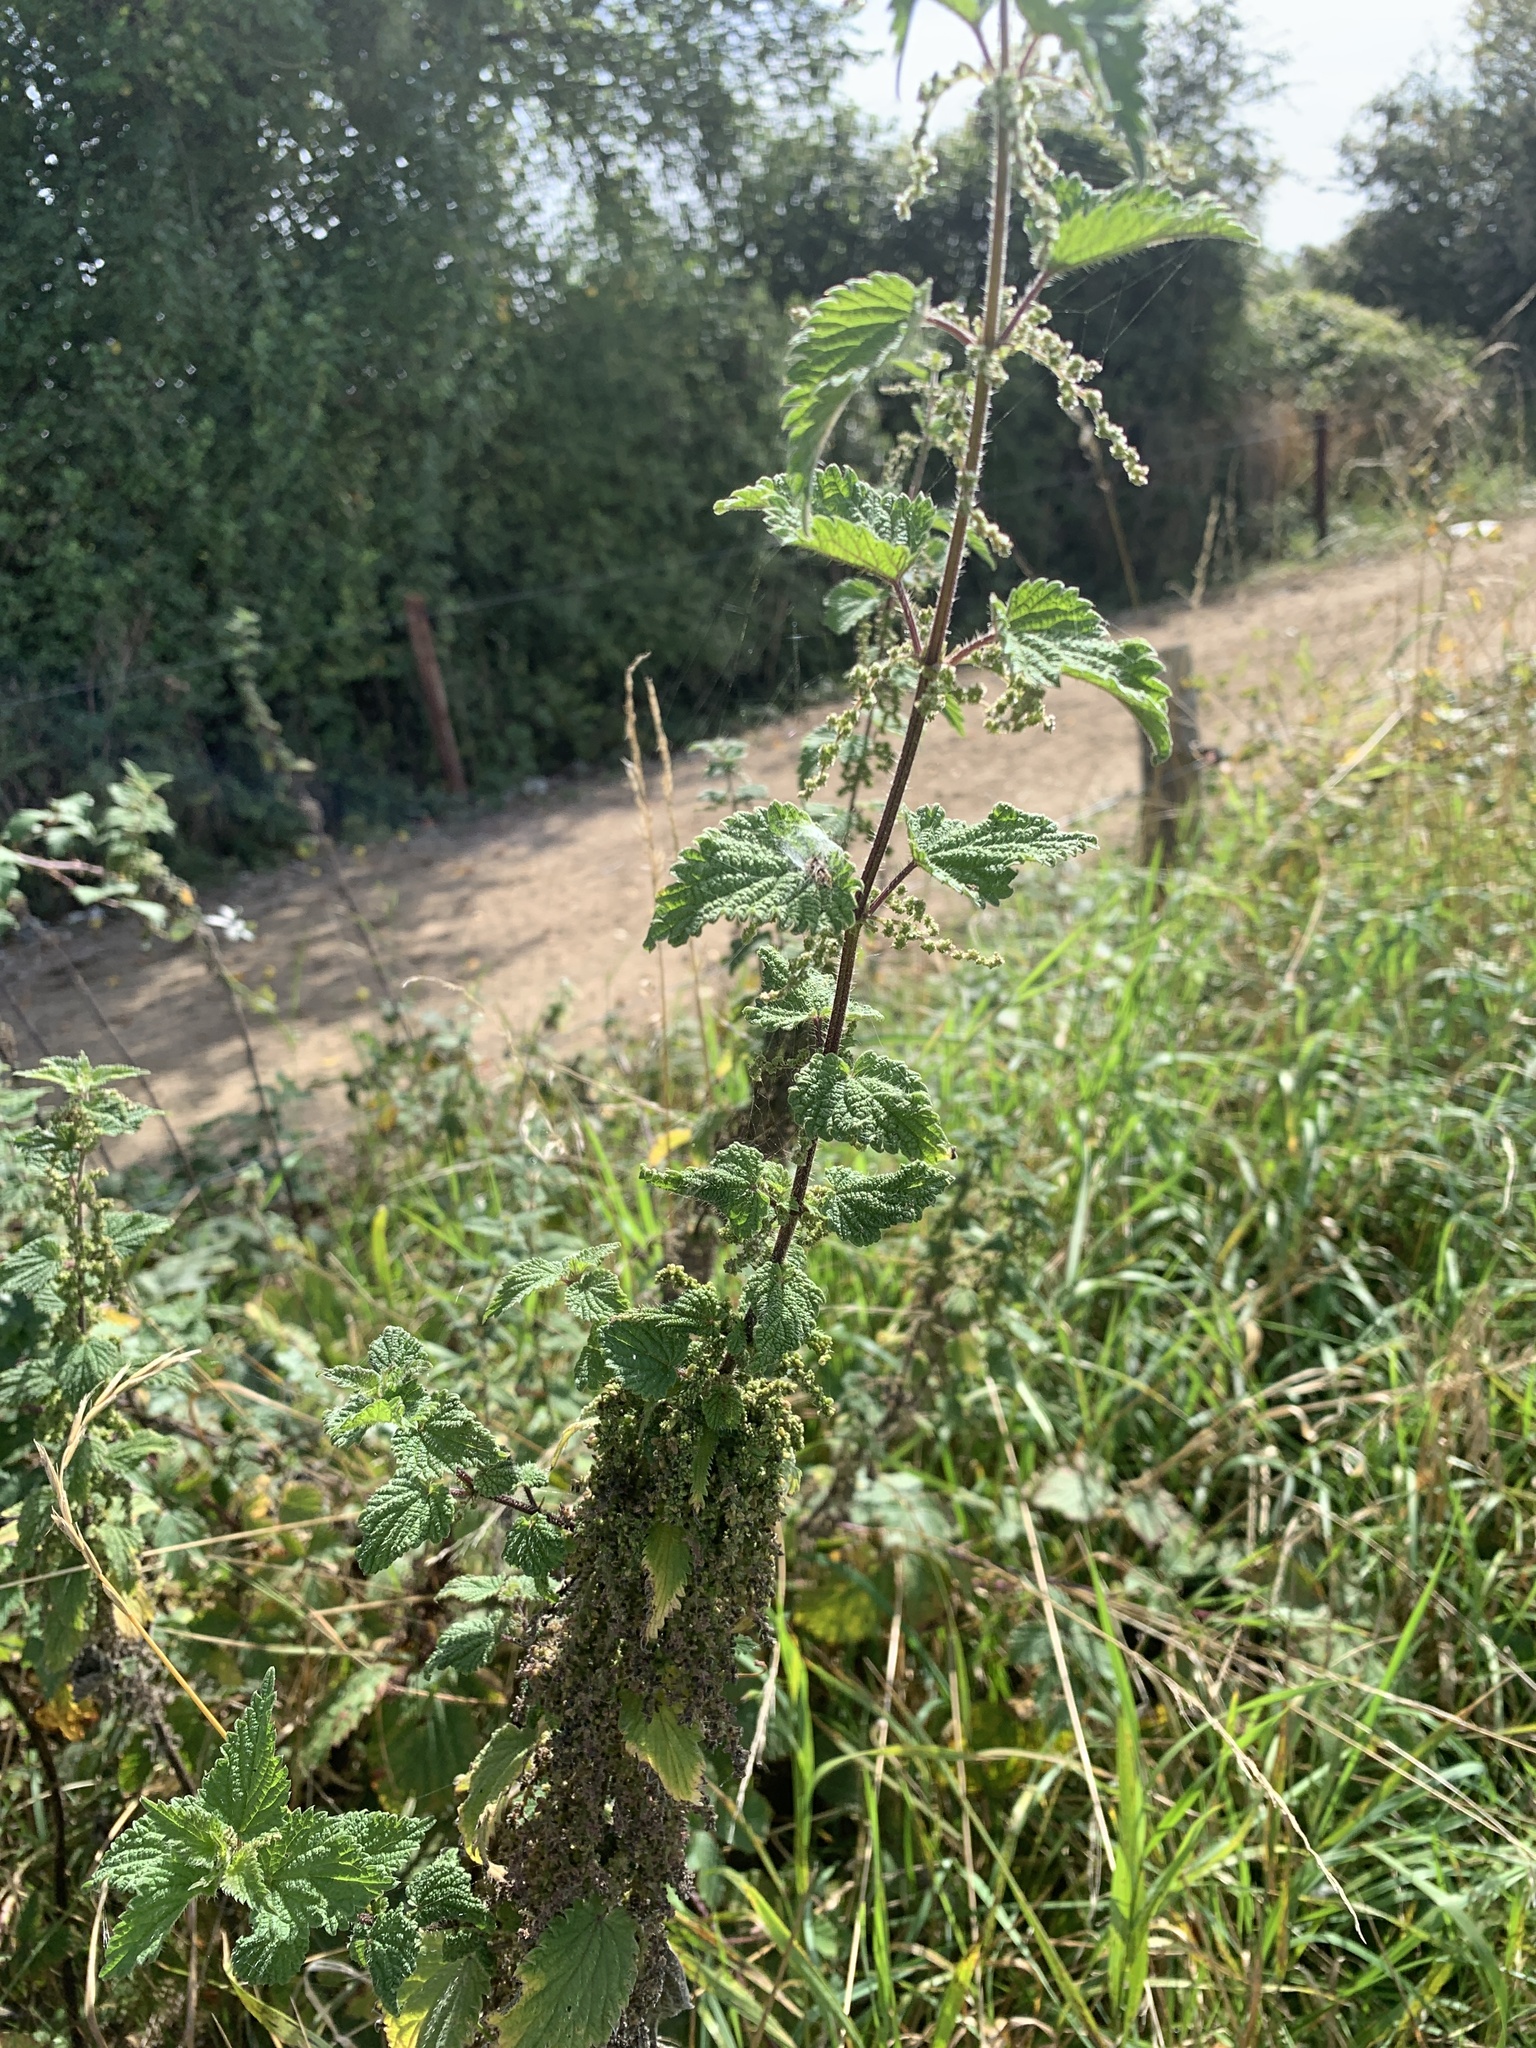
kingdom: Plantae
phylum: Tracheophyta
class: Magnoliopsida
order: Rosales
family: Urticaceae
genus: Urtica
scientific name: Urtica dioica
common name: Common nettle
